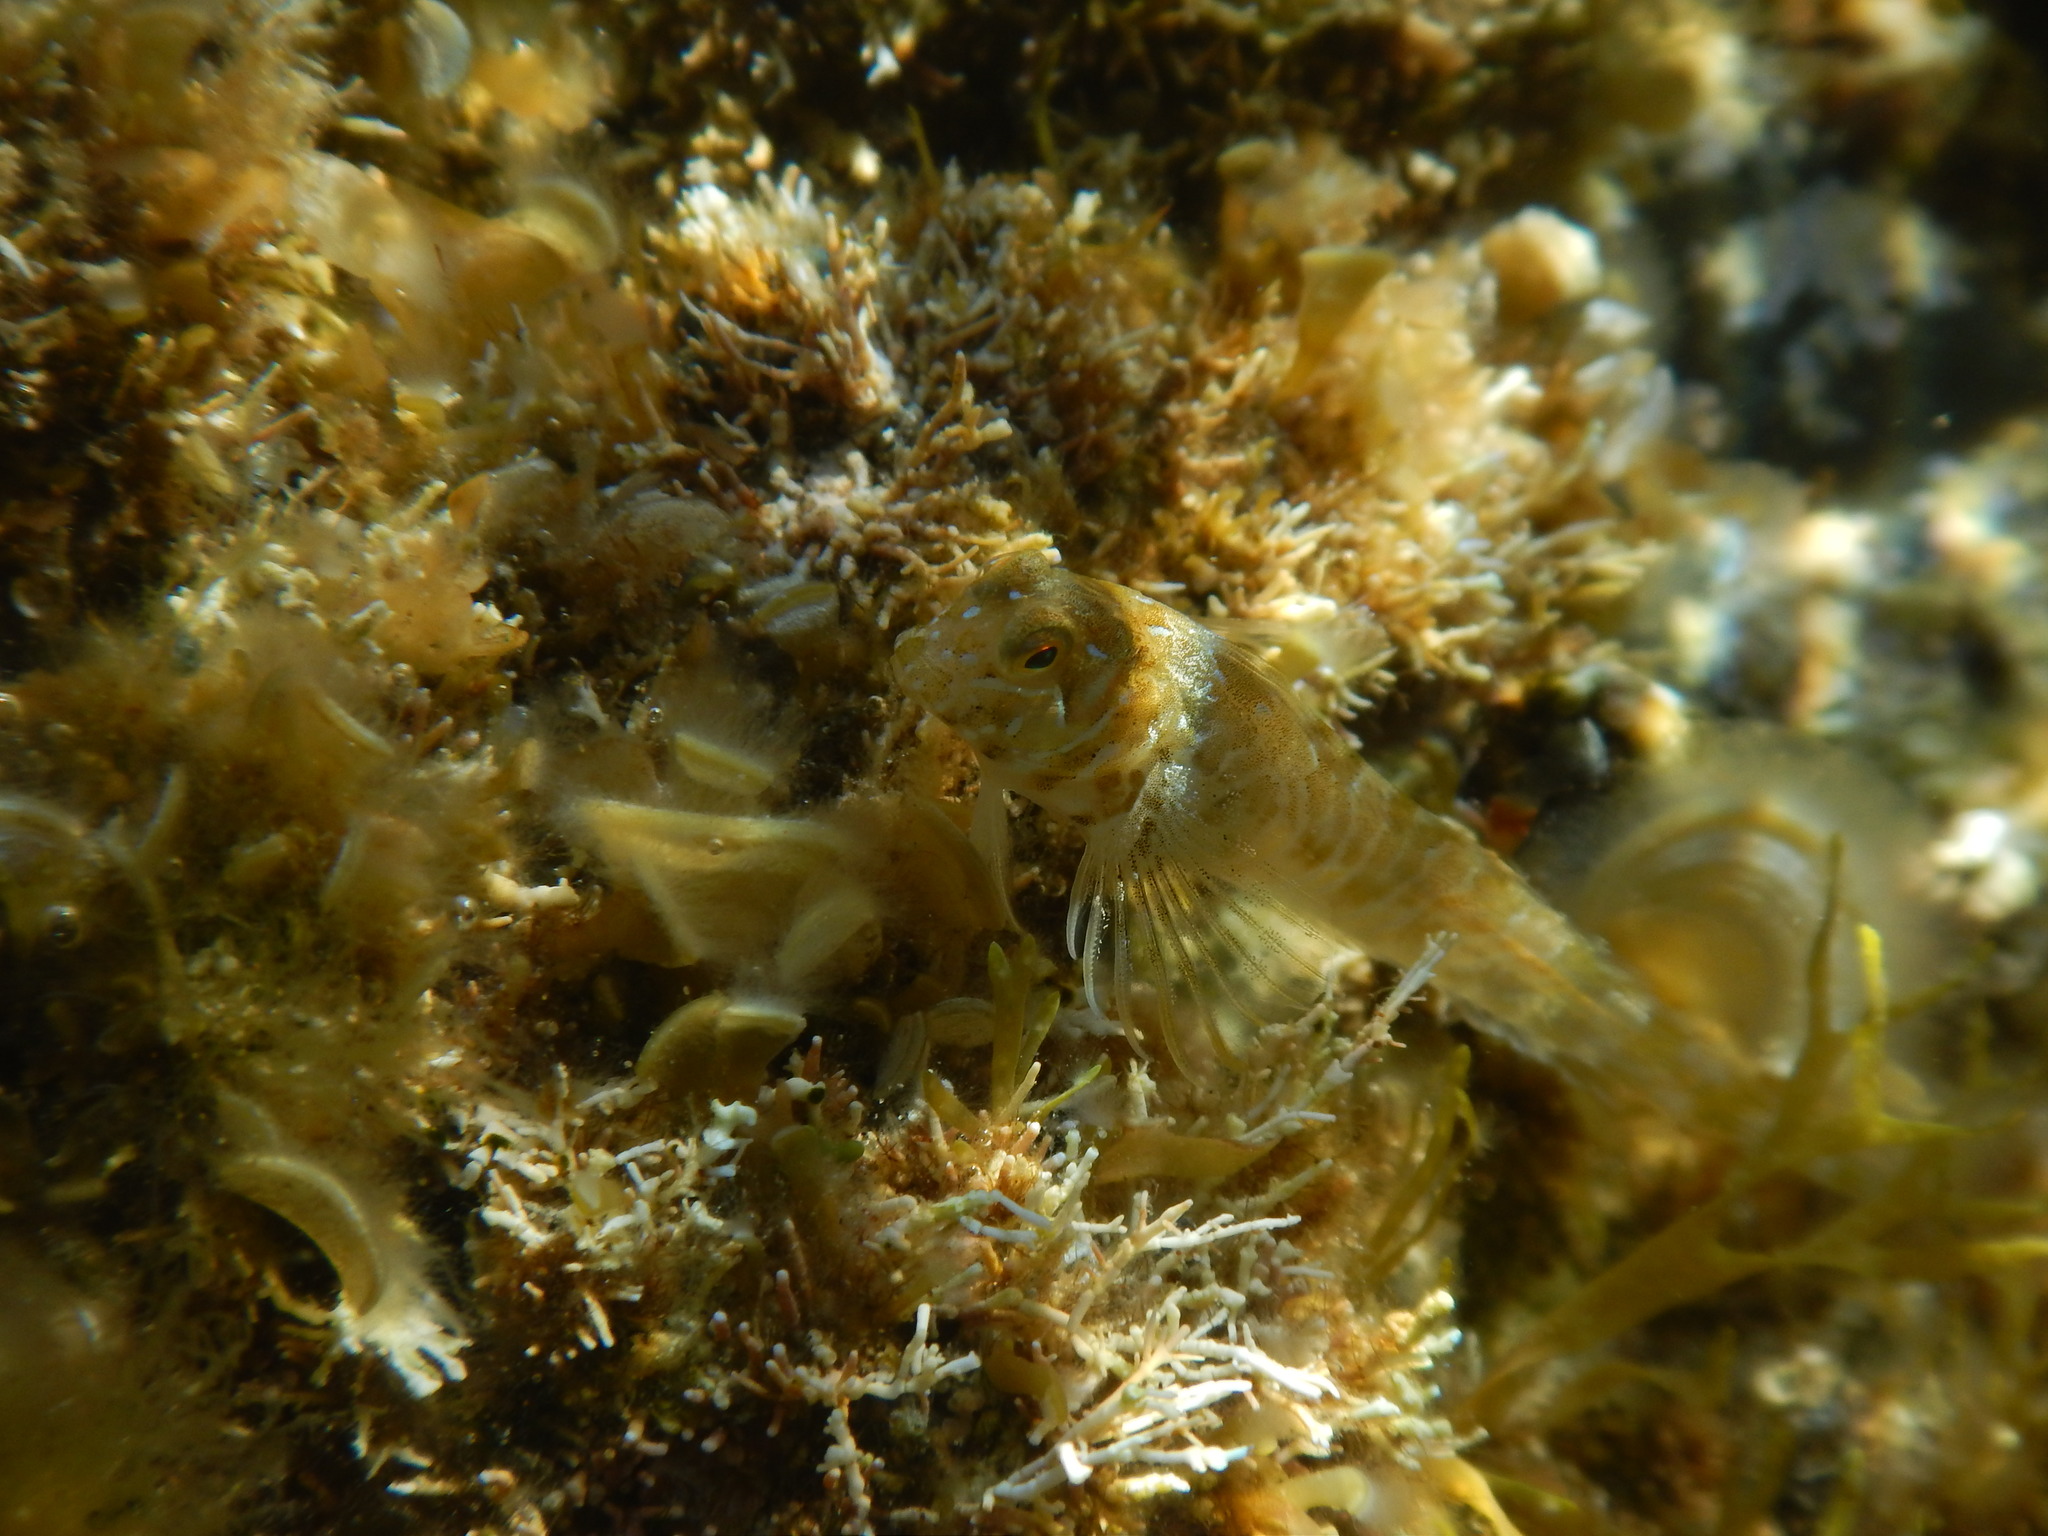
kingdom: Animalia
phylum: Chordata
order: Perciformes
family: Blenniidae
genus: Aidablennius
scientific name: Aidablennius sphynx
